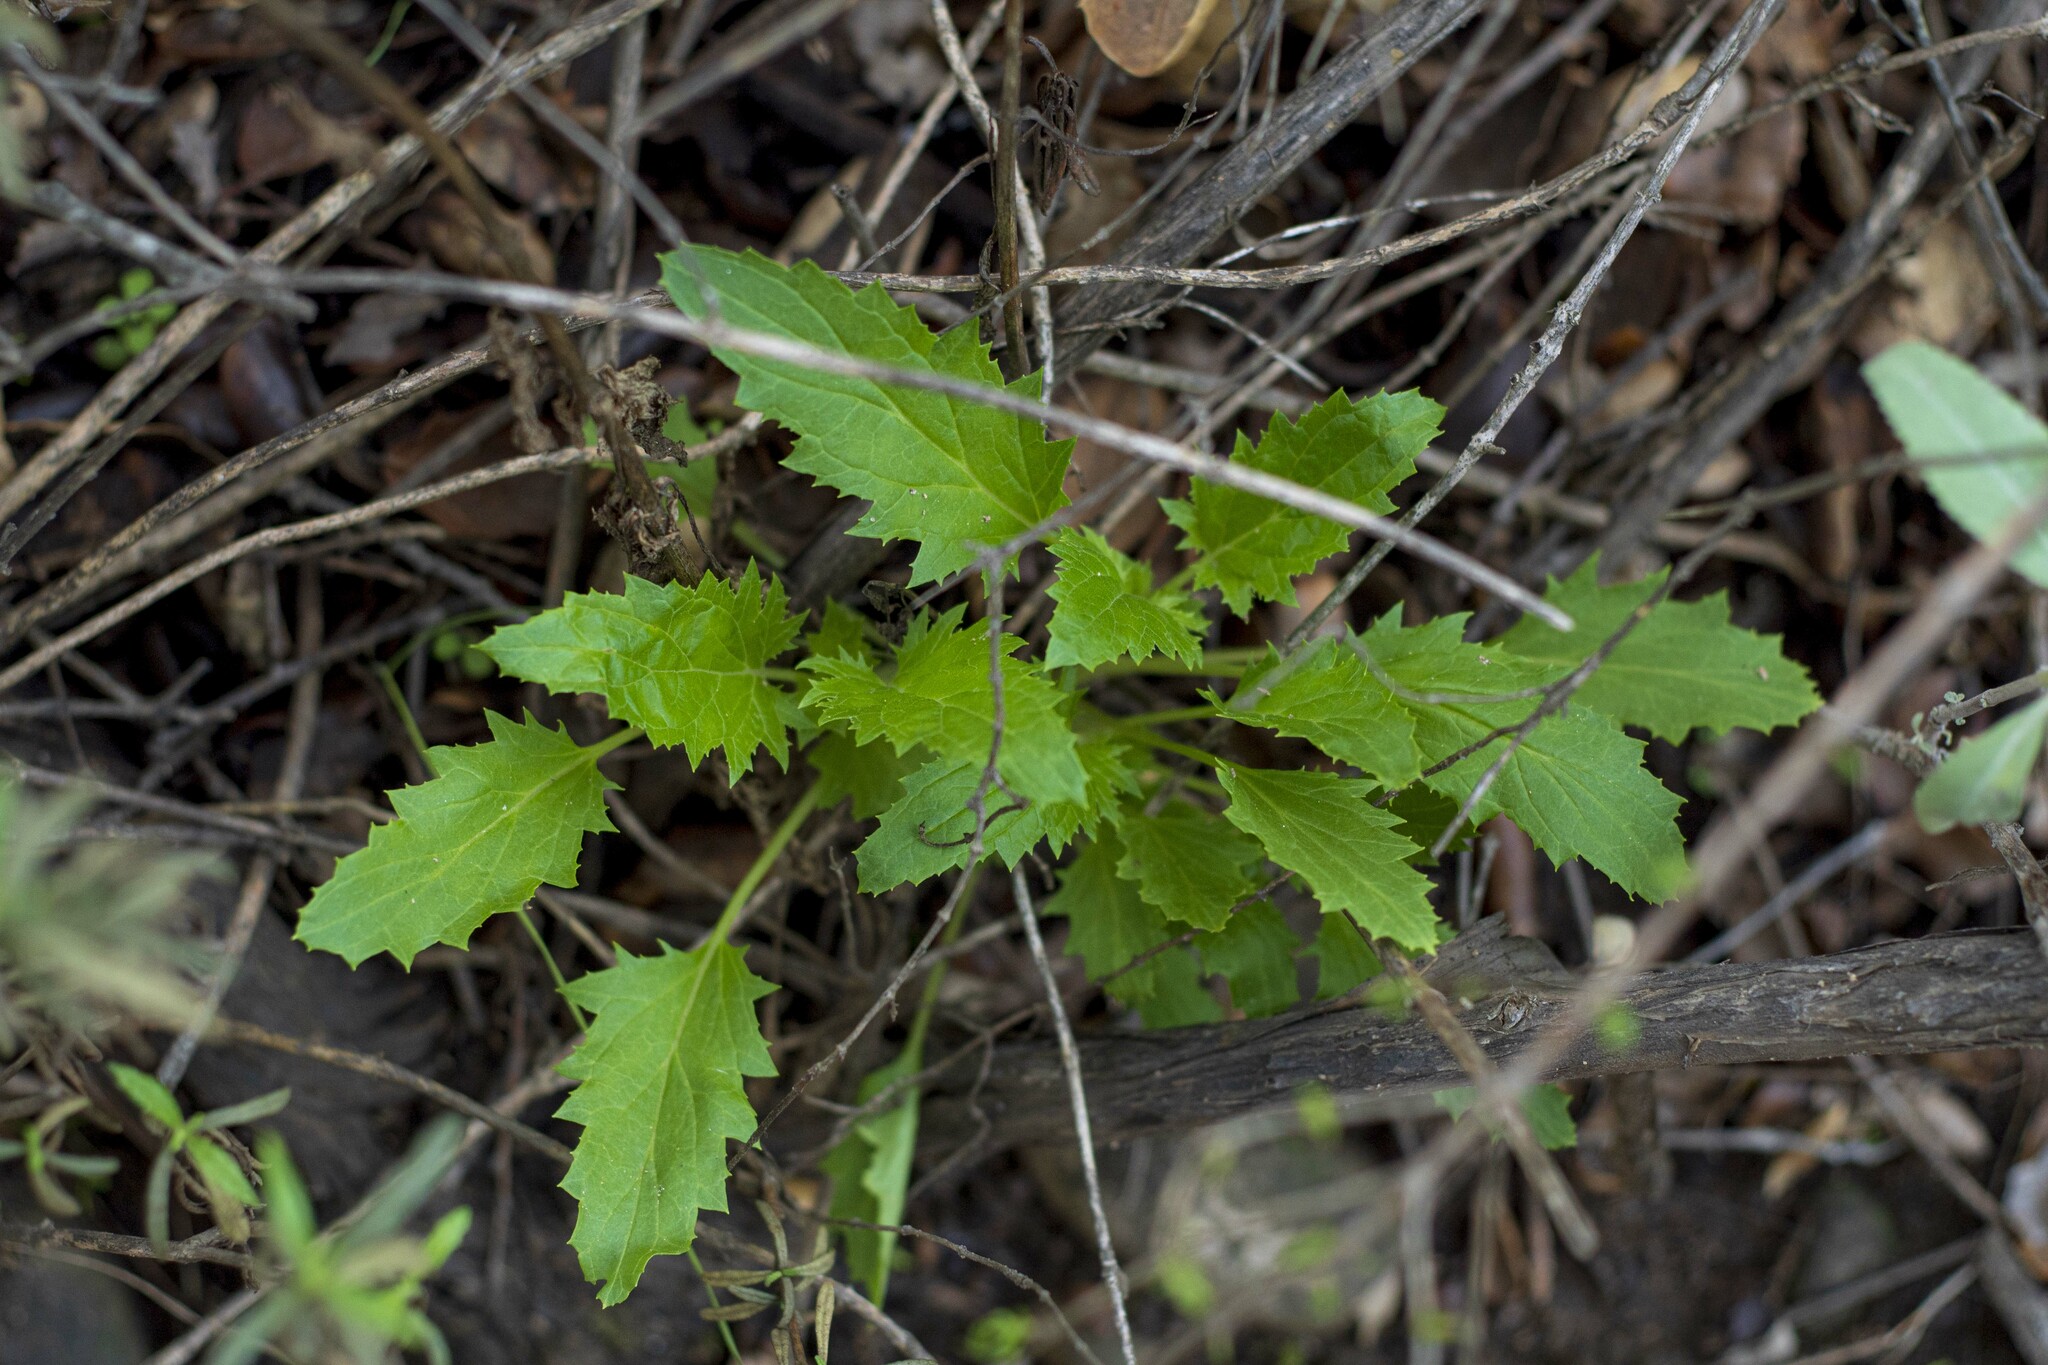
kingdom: Plantae
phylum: Tracheophyta
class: Magnoliopsida
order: Lamiales
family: Scrophulariaceae
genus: Scrophularia
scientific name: Scrophularia californica
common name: California figwort
